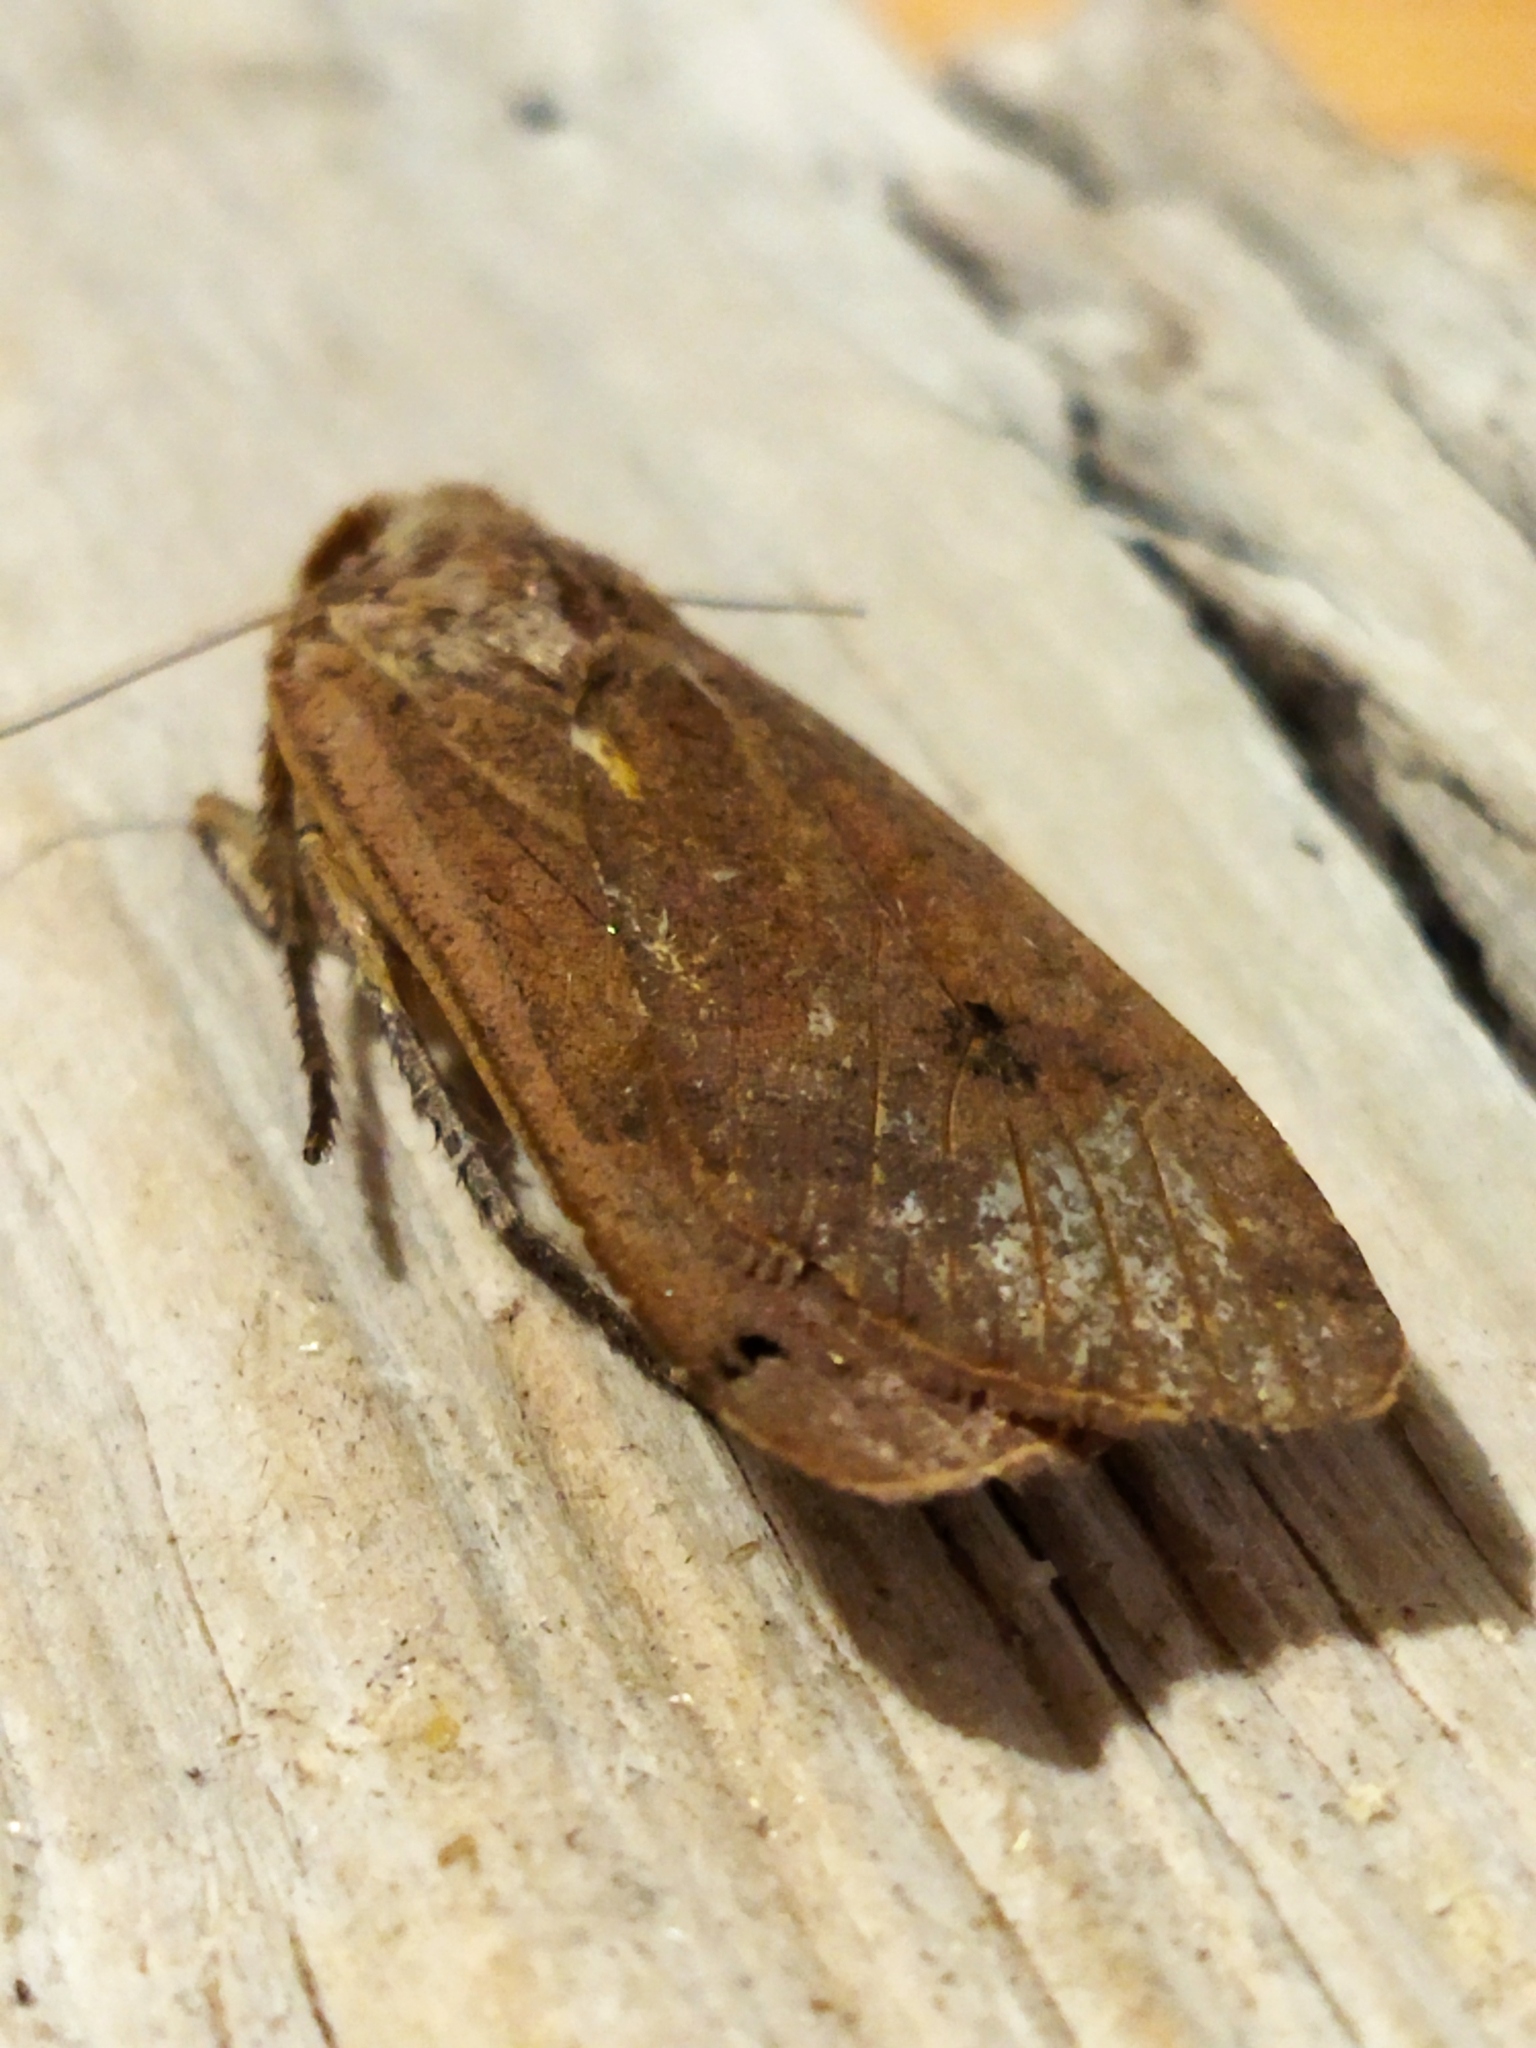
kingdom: Animalia
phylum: Arthropoda
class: Insecta
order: Lepidoptera
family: Noctuidae
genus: Noctua
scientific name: Noctua pronuba
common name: Large yellow underwing
